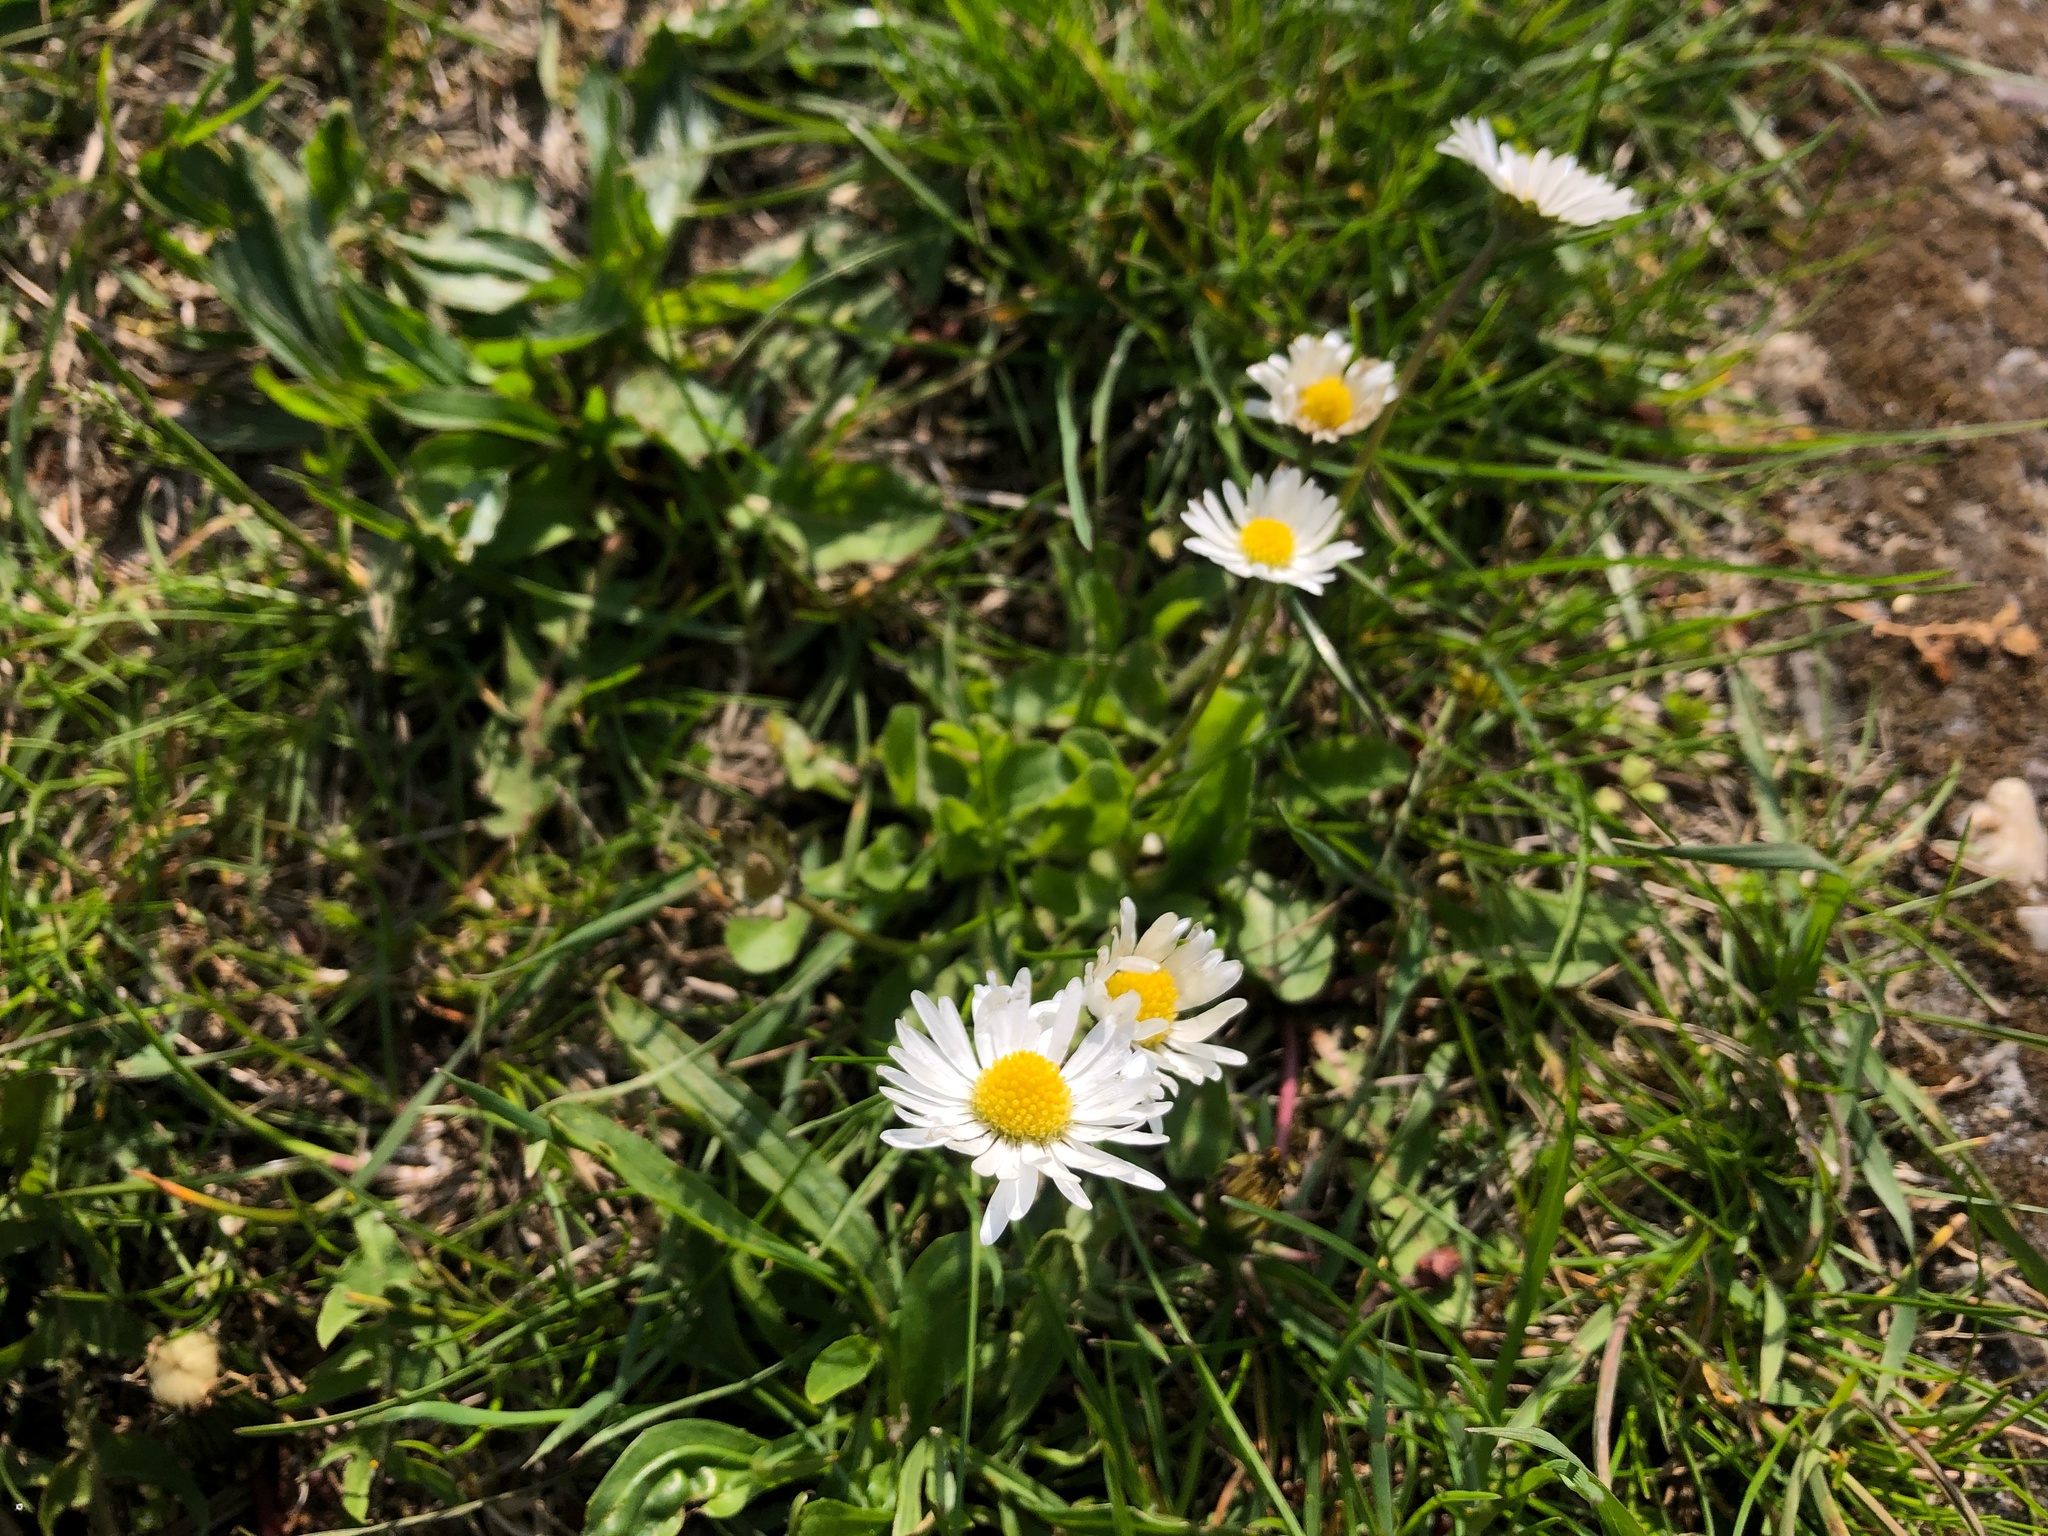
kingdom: Plantae
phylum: Tracheophyta
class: Magnoliopsida
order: Asterales
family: Asteraceae
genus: Bellis
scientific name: Bellis perennis
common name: Lawndaisy
